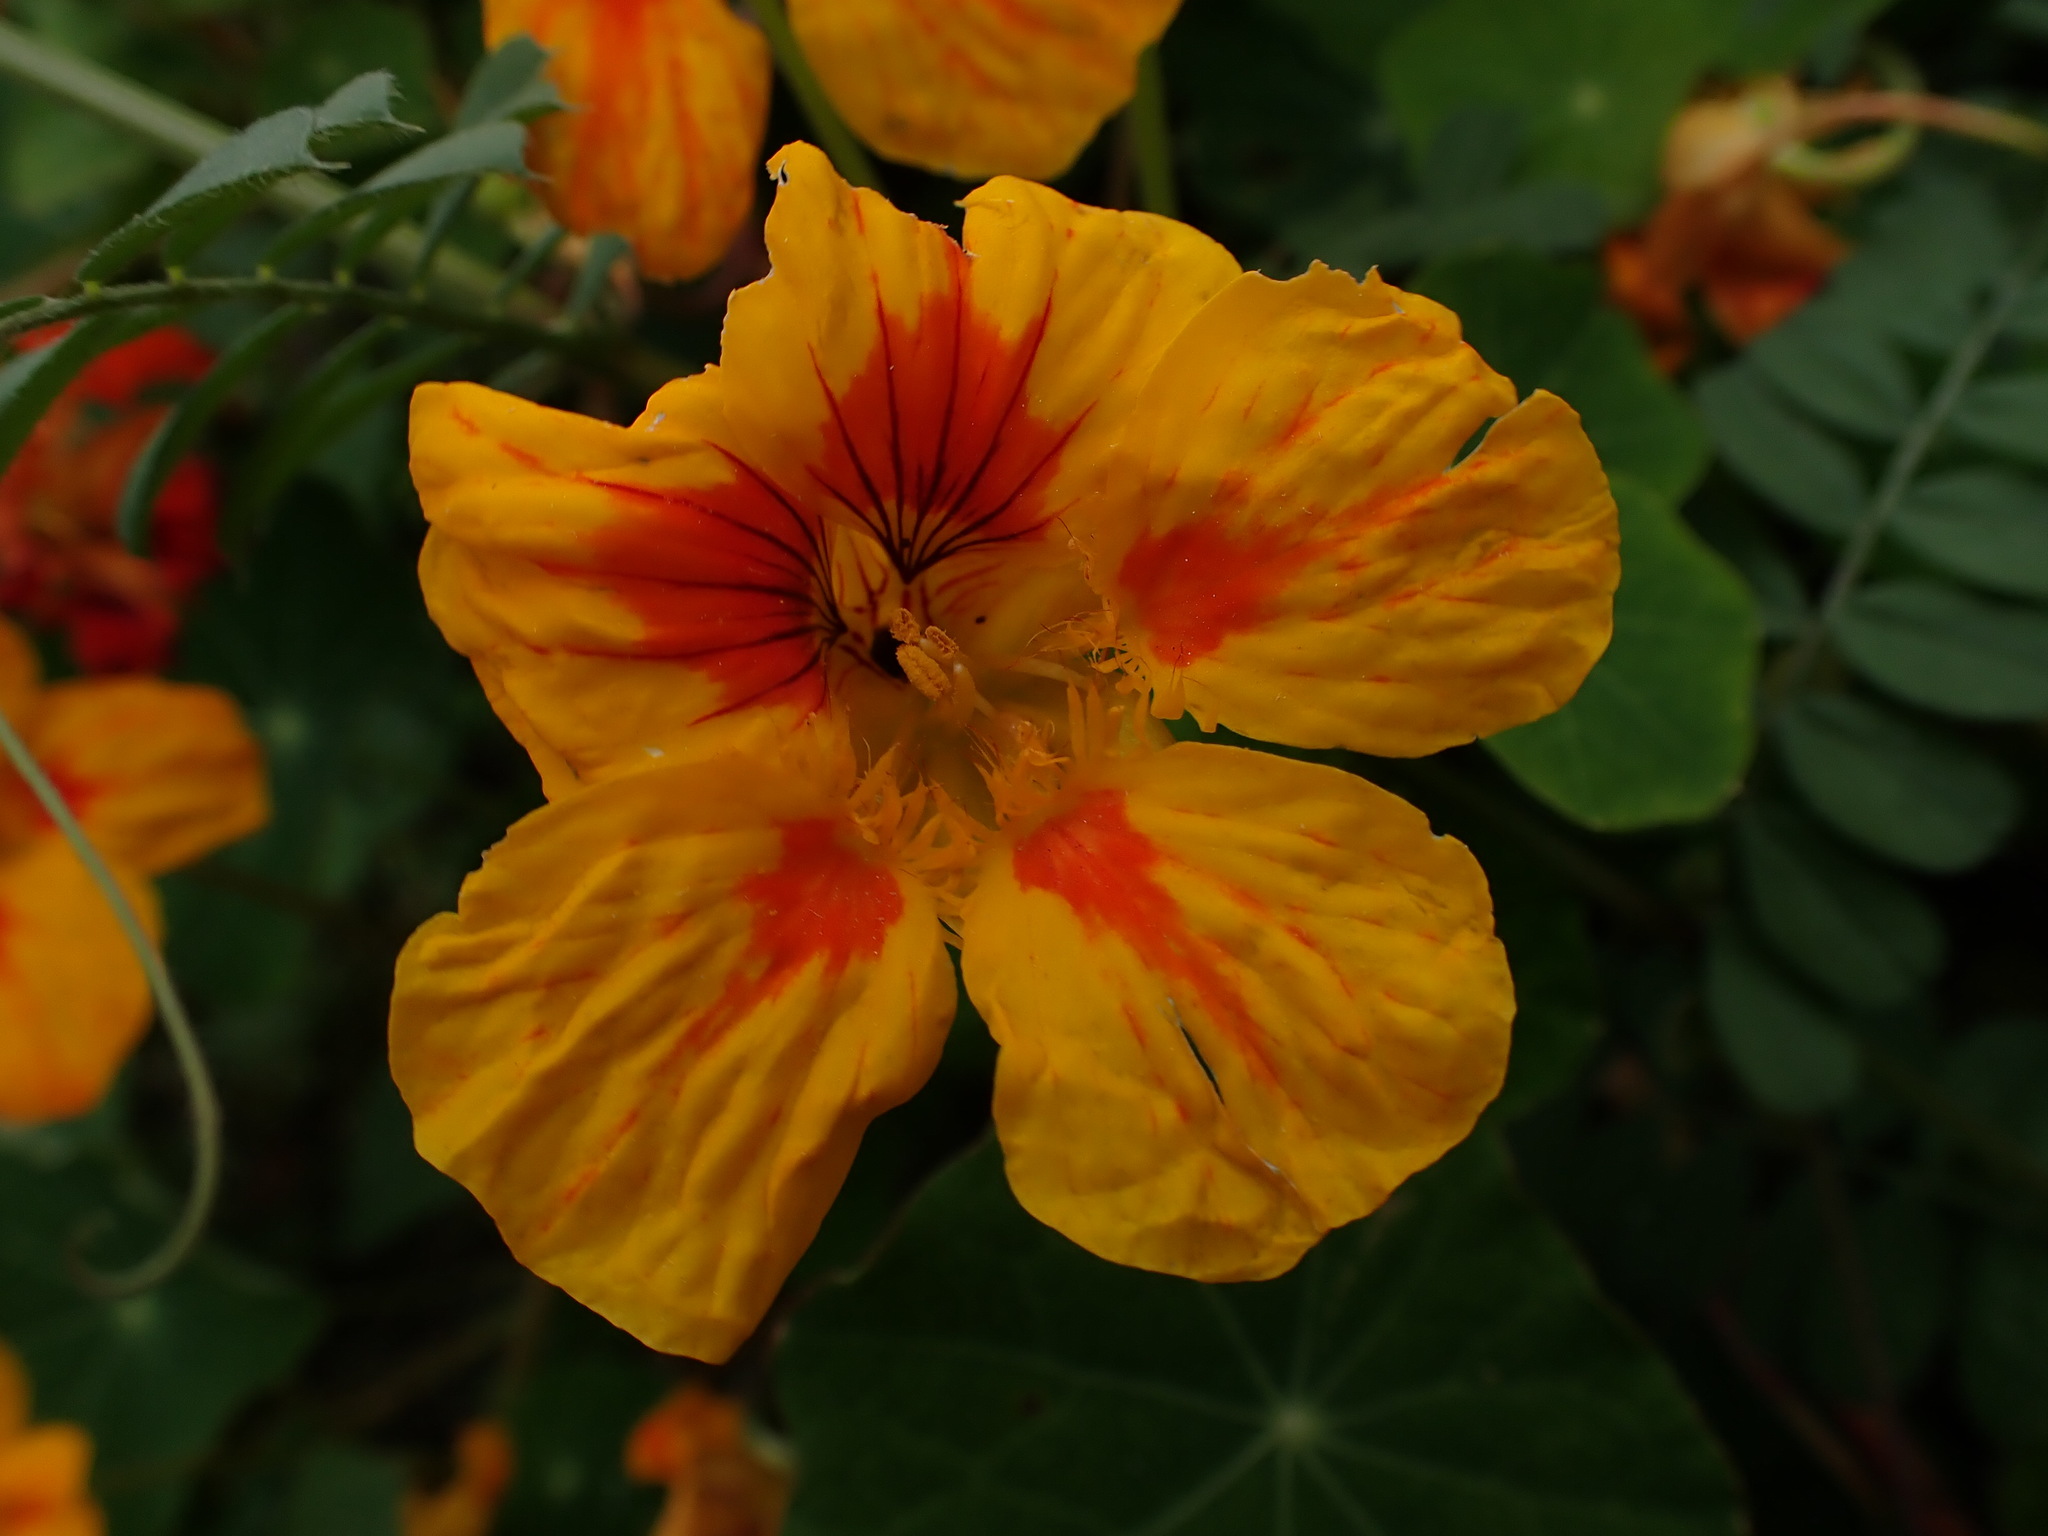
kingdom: Plantae
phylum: Tracheophyta
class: Magnoliopsida
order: Brassicales
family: Tropaeolaceae
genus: Tropaeolum
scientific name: Tropaeolum majus
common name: Nasturtium
